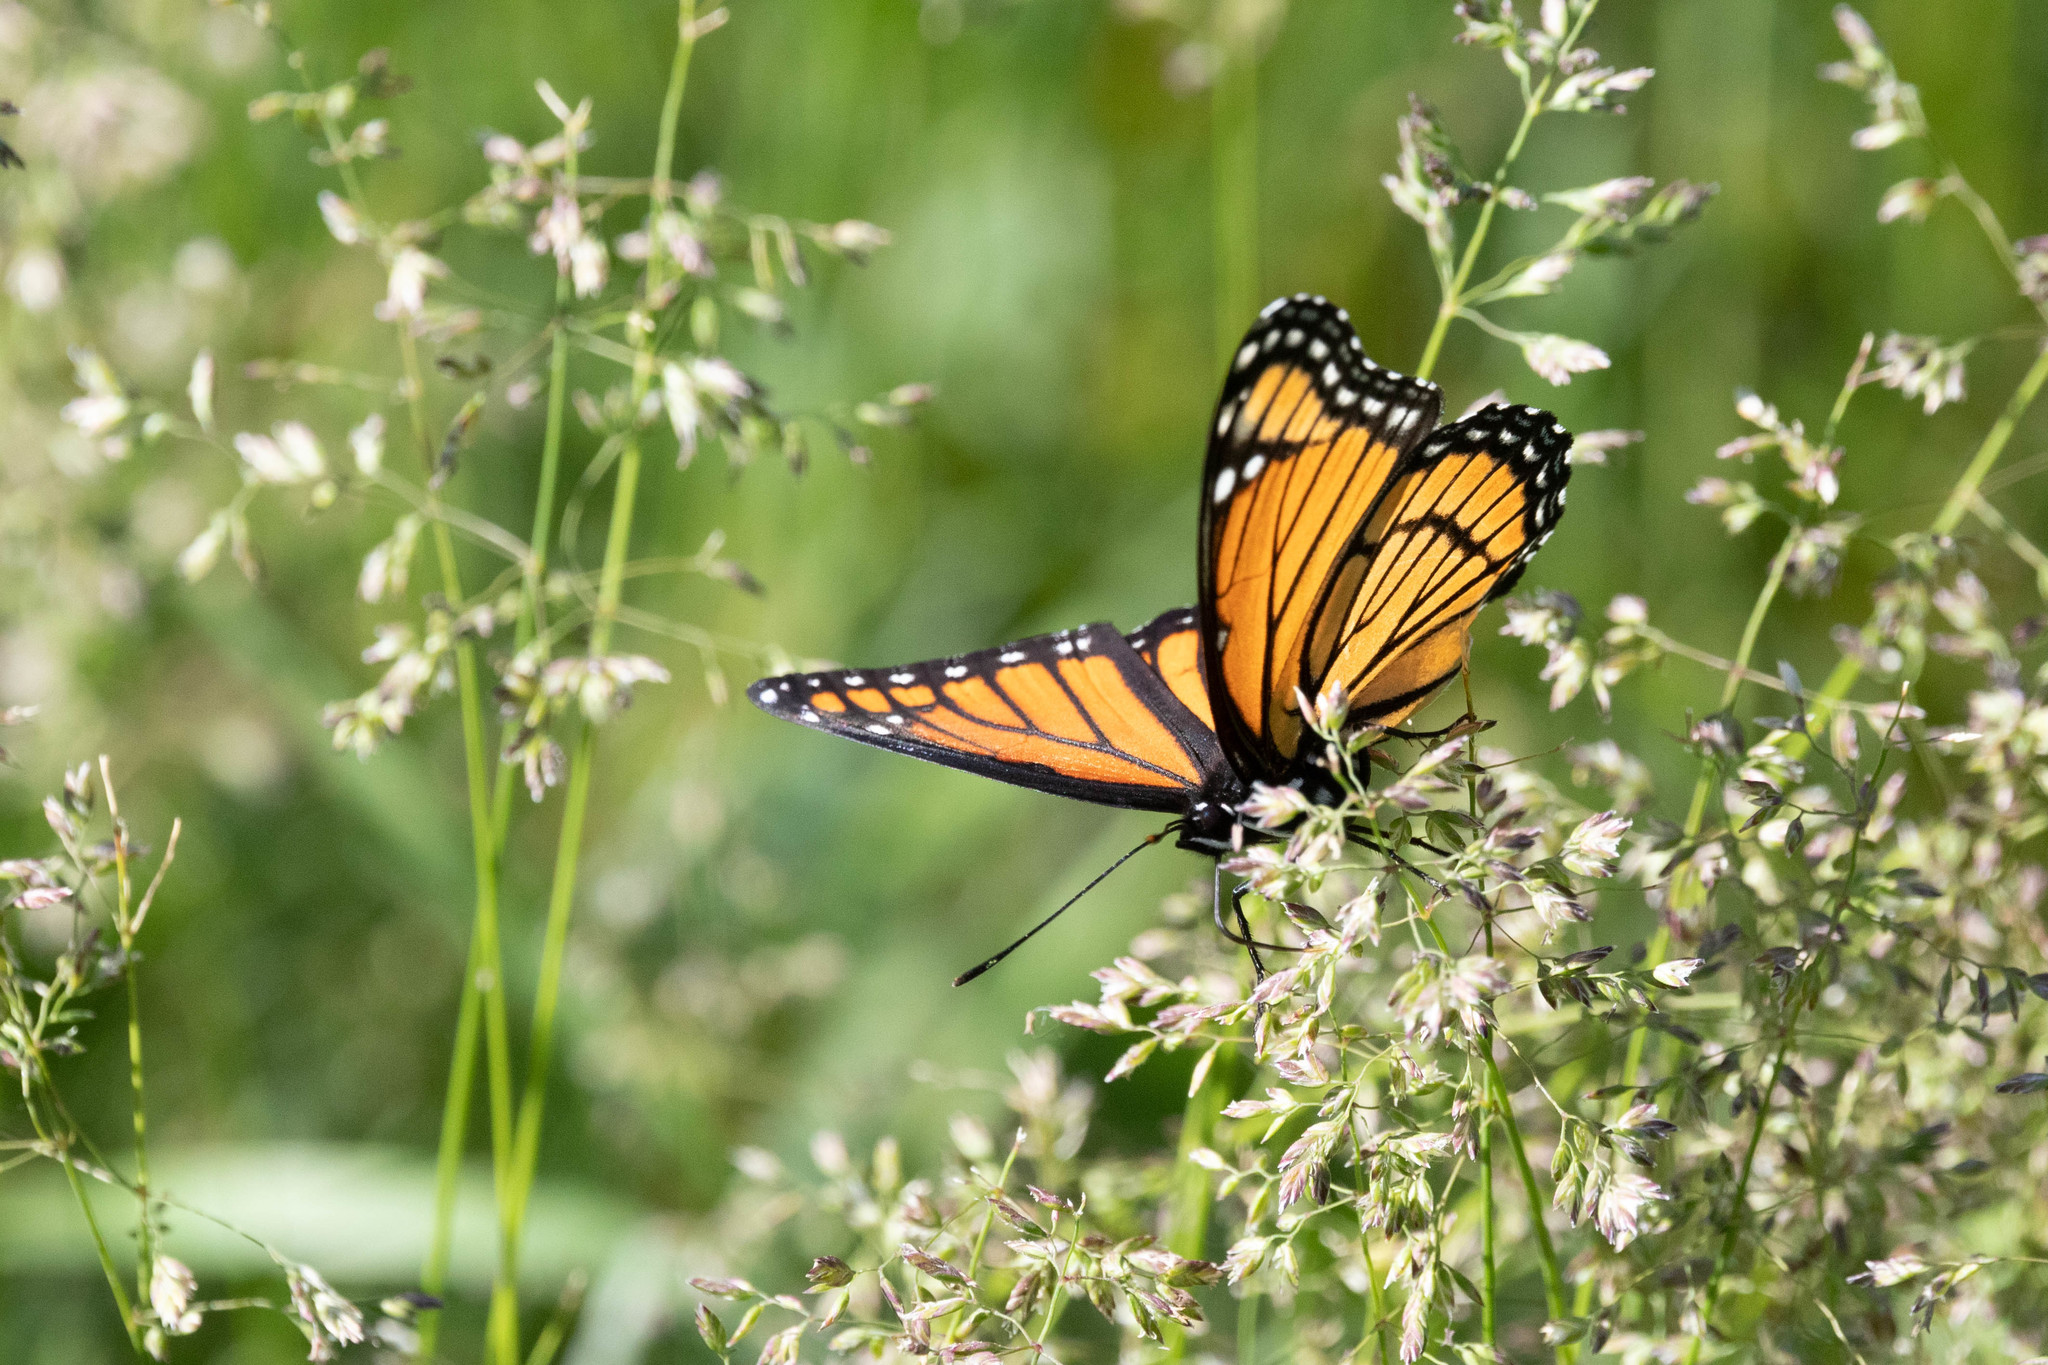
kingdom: Animalia
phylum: Arthropoda
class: Insecta
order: Lepidoptera
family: Nymphalidae
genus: Limenitis
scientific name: Limenitis archippus
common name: Viceroy
